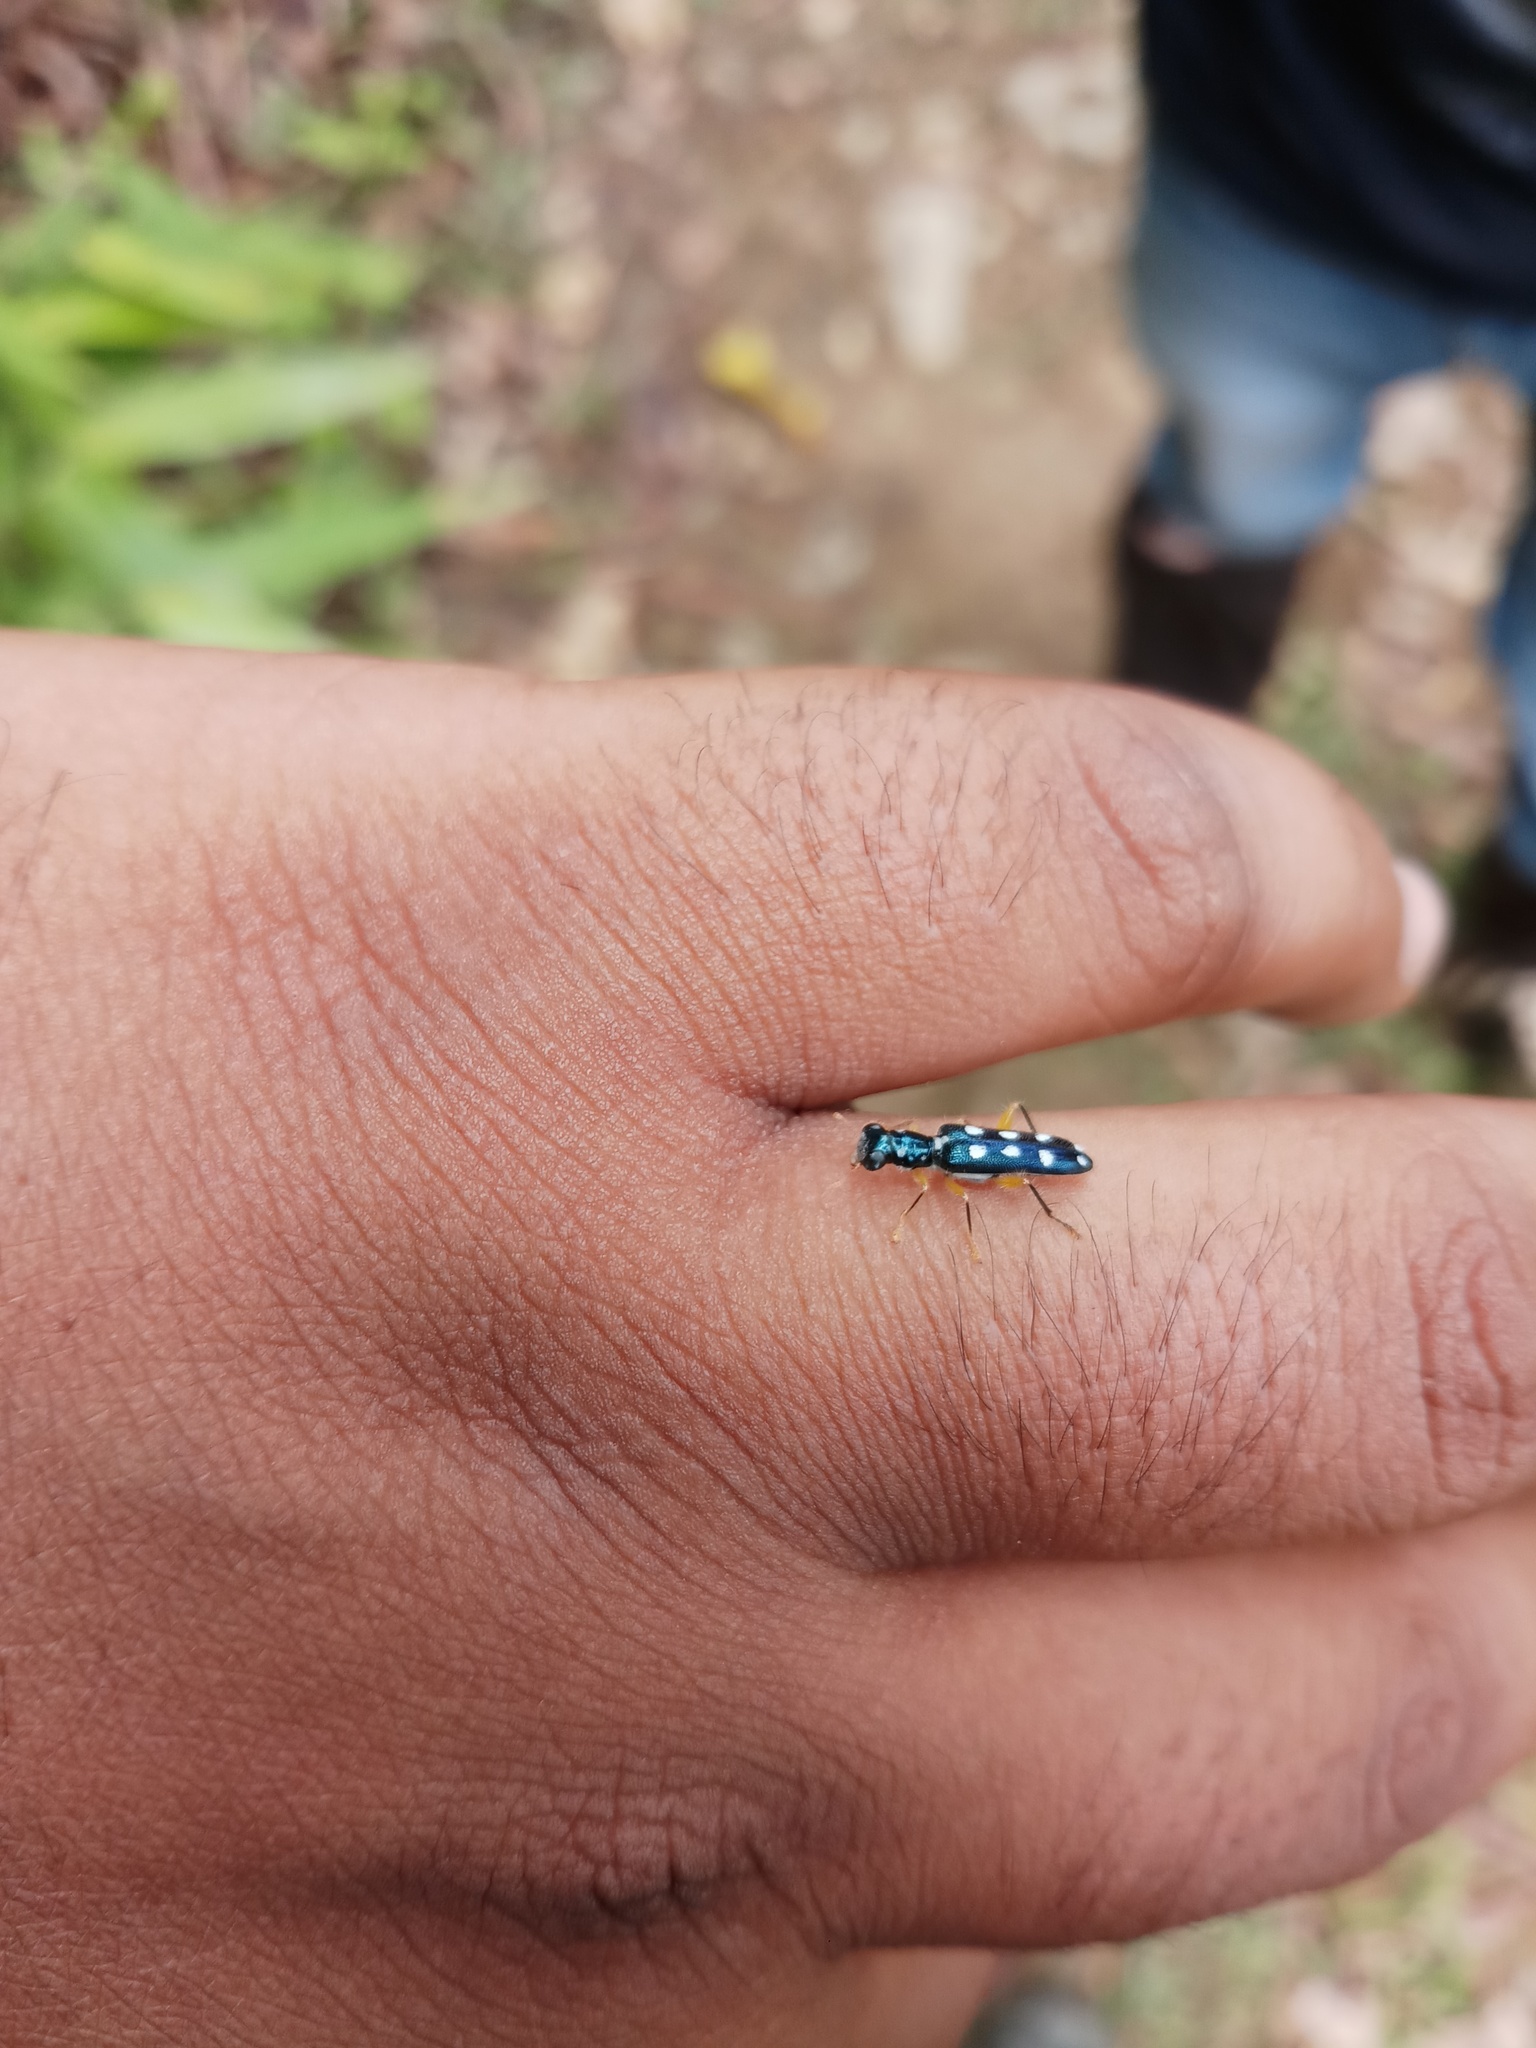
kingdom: Animalia
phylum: Arthropoda
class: Insecta
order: Coleoptera
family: Cleridae
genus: Callimerus
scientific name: Callimerus
